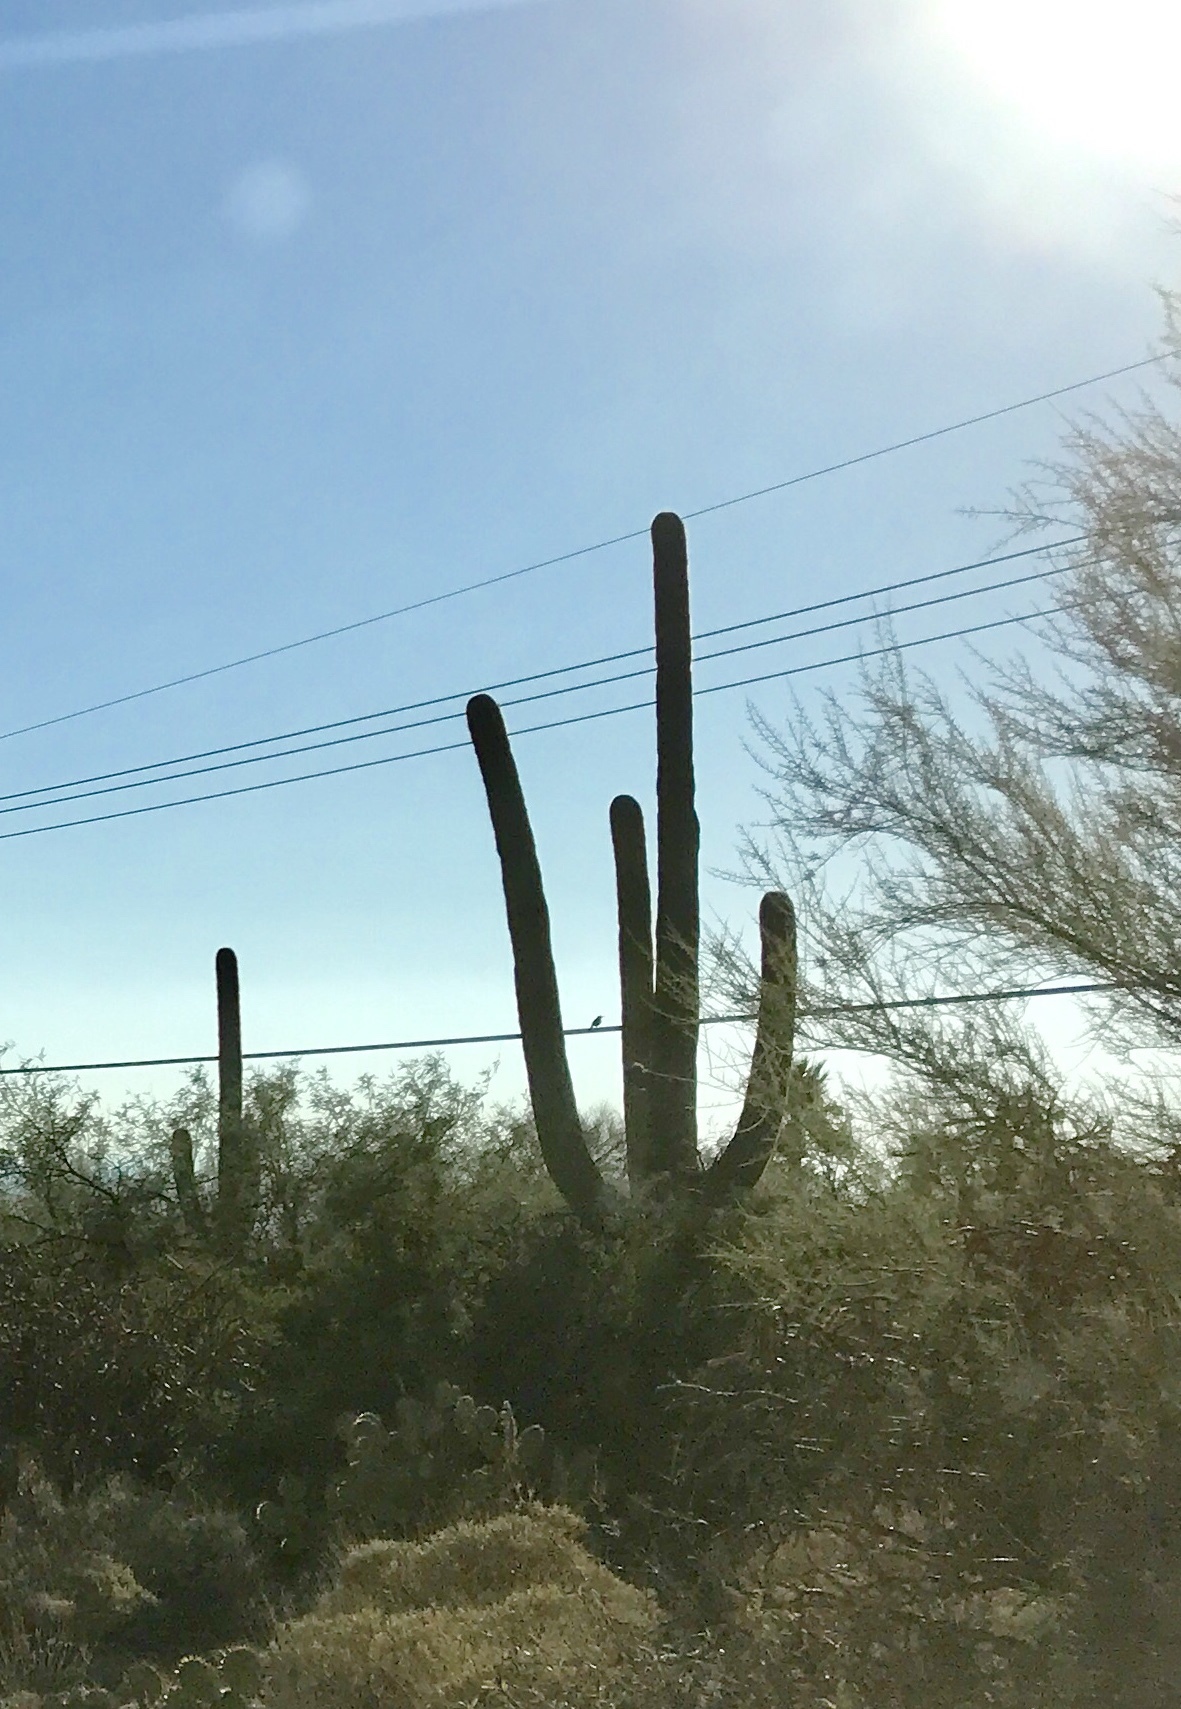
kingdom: Plantae
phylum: Tracheophyta
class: Magnoliopsida
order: Caryophyllales
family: Cactaceae
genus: Carnegiea
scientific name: Carnegiea gigantea
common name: Saguaro
